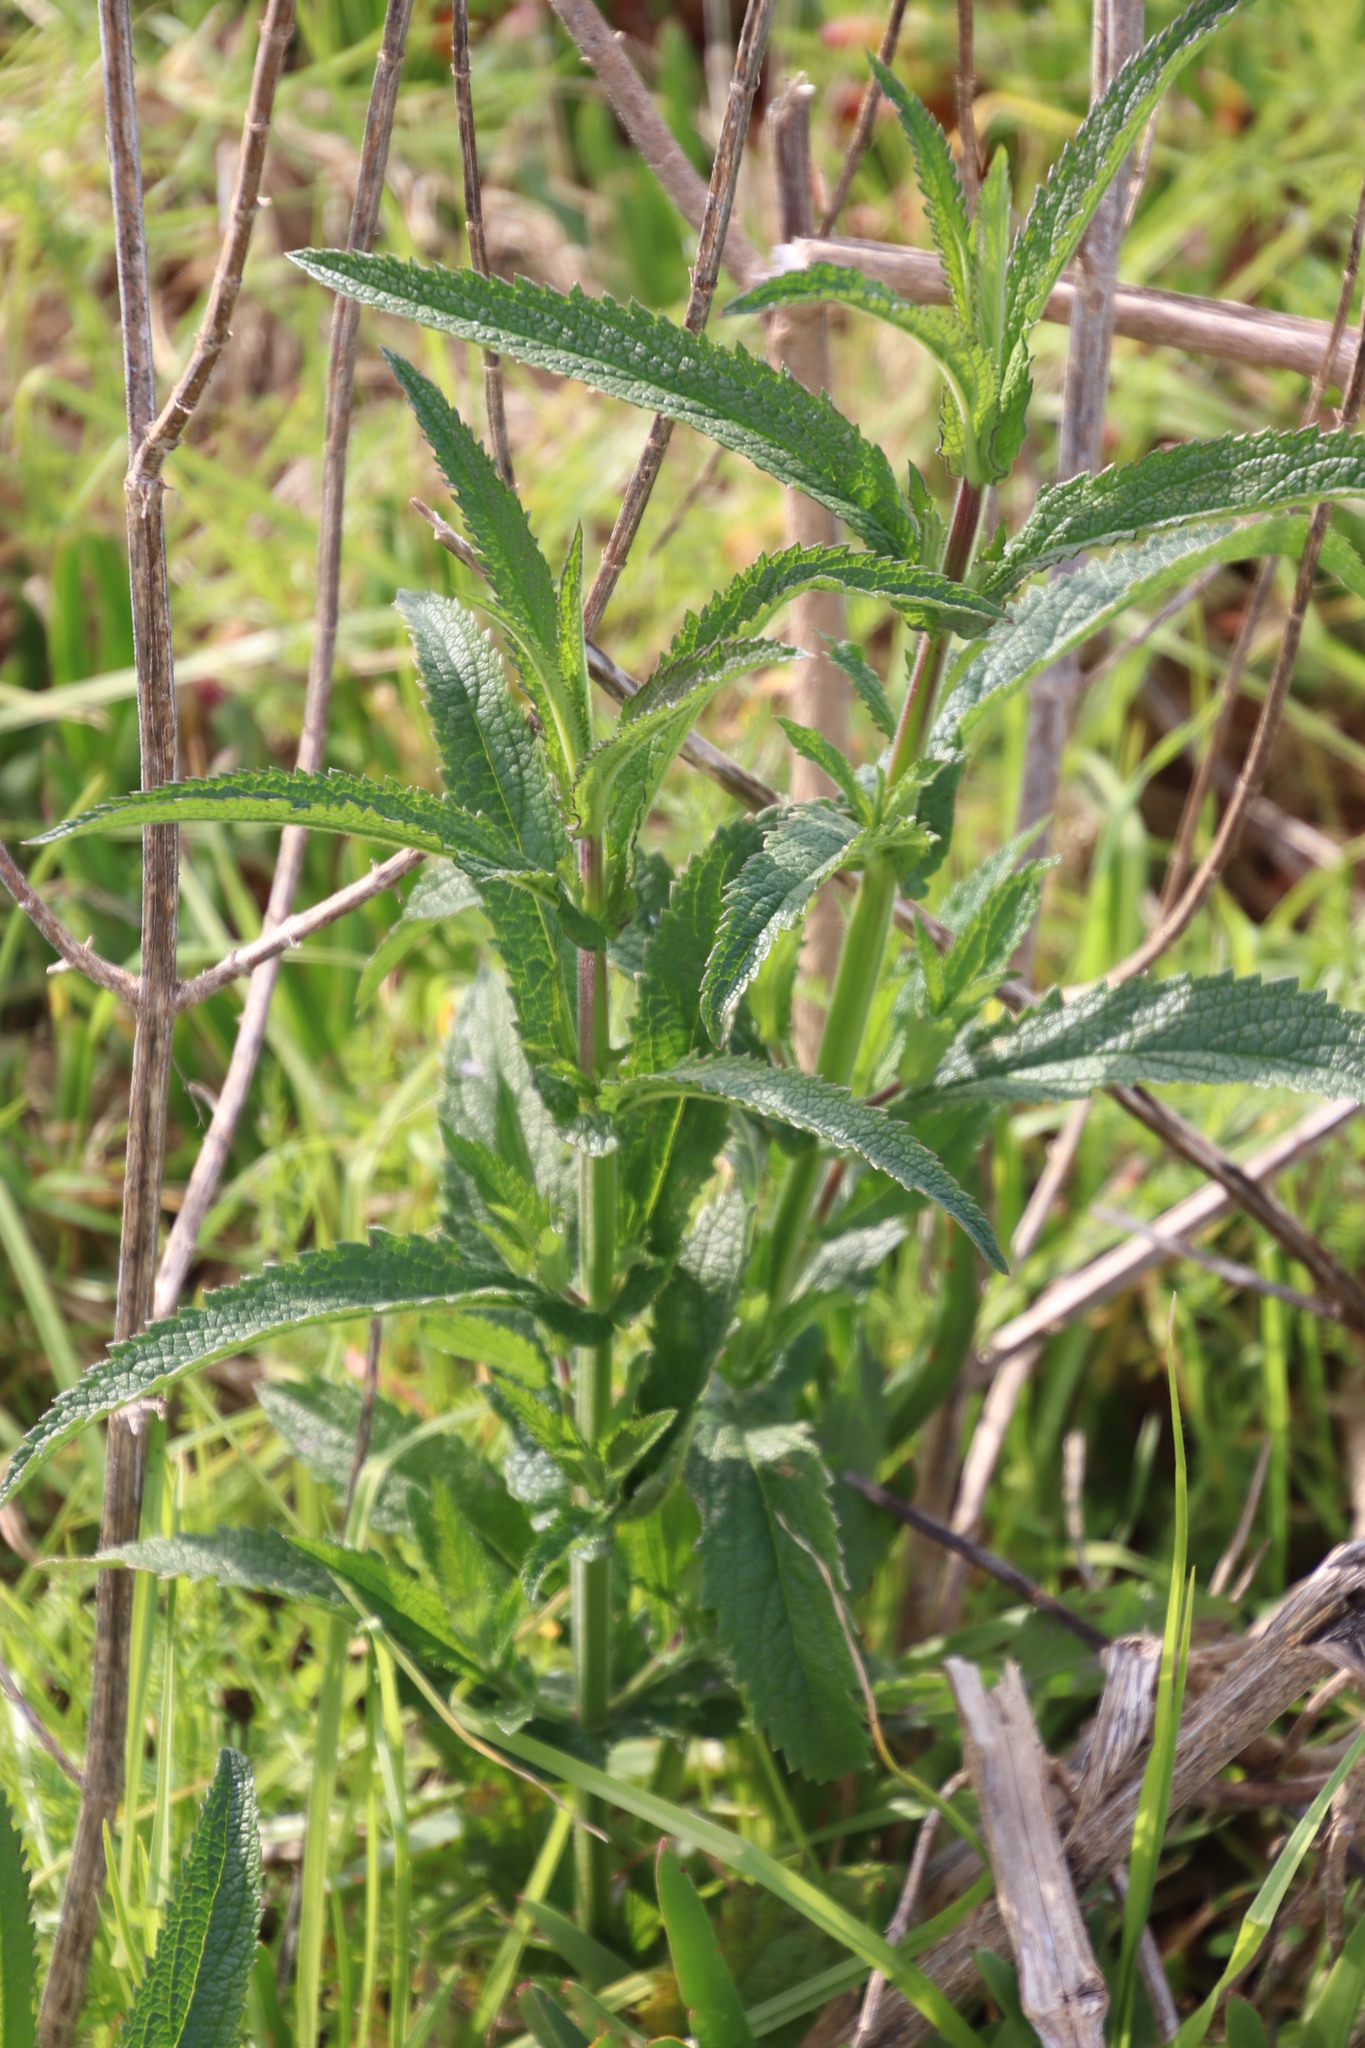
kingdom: Plantae
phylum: Tracheophyta
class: Magnoliopsida
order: Lamiales
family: Verbenaceae
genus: Verbena
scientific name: Verbena bonariensis
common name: Purpletop vervain
